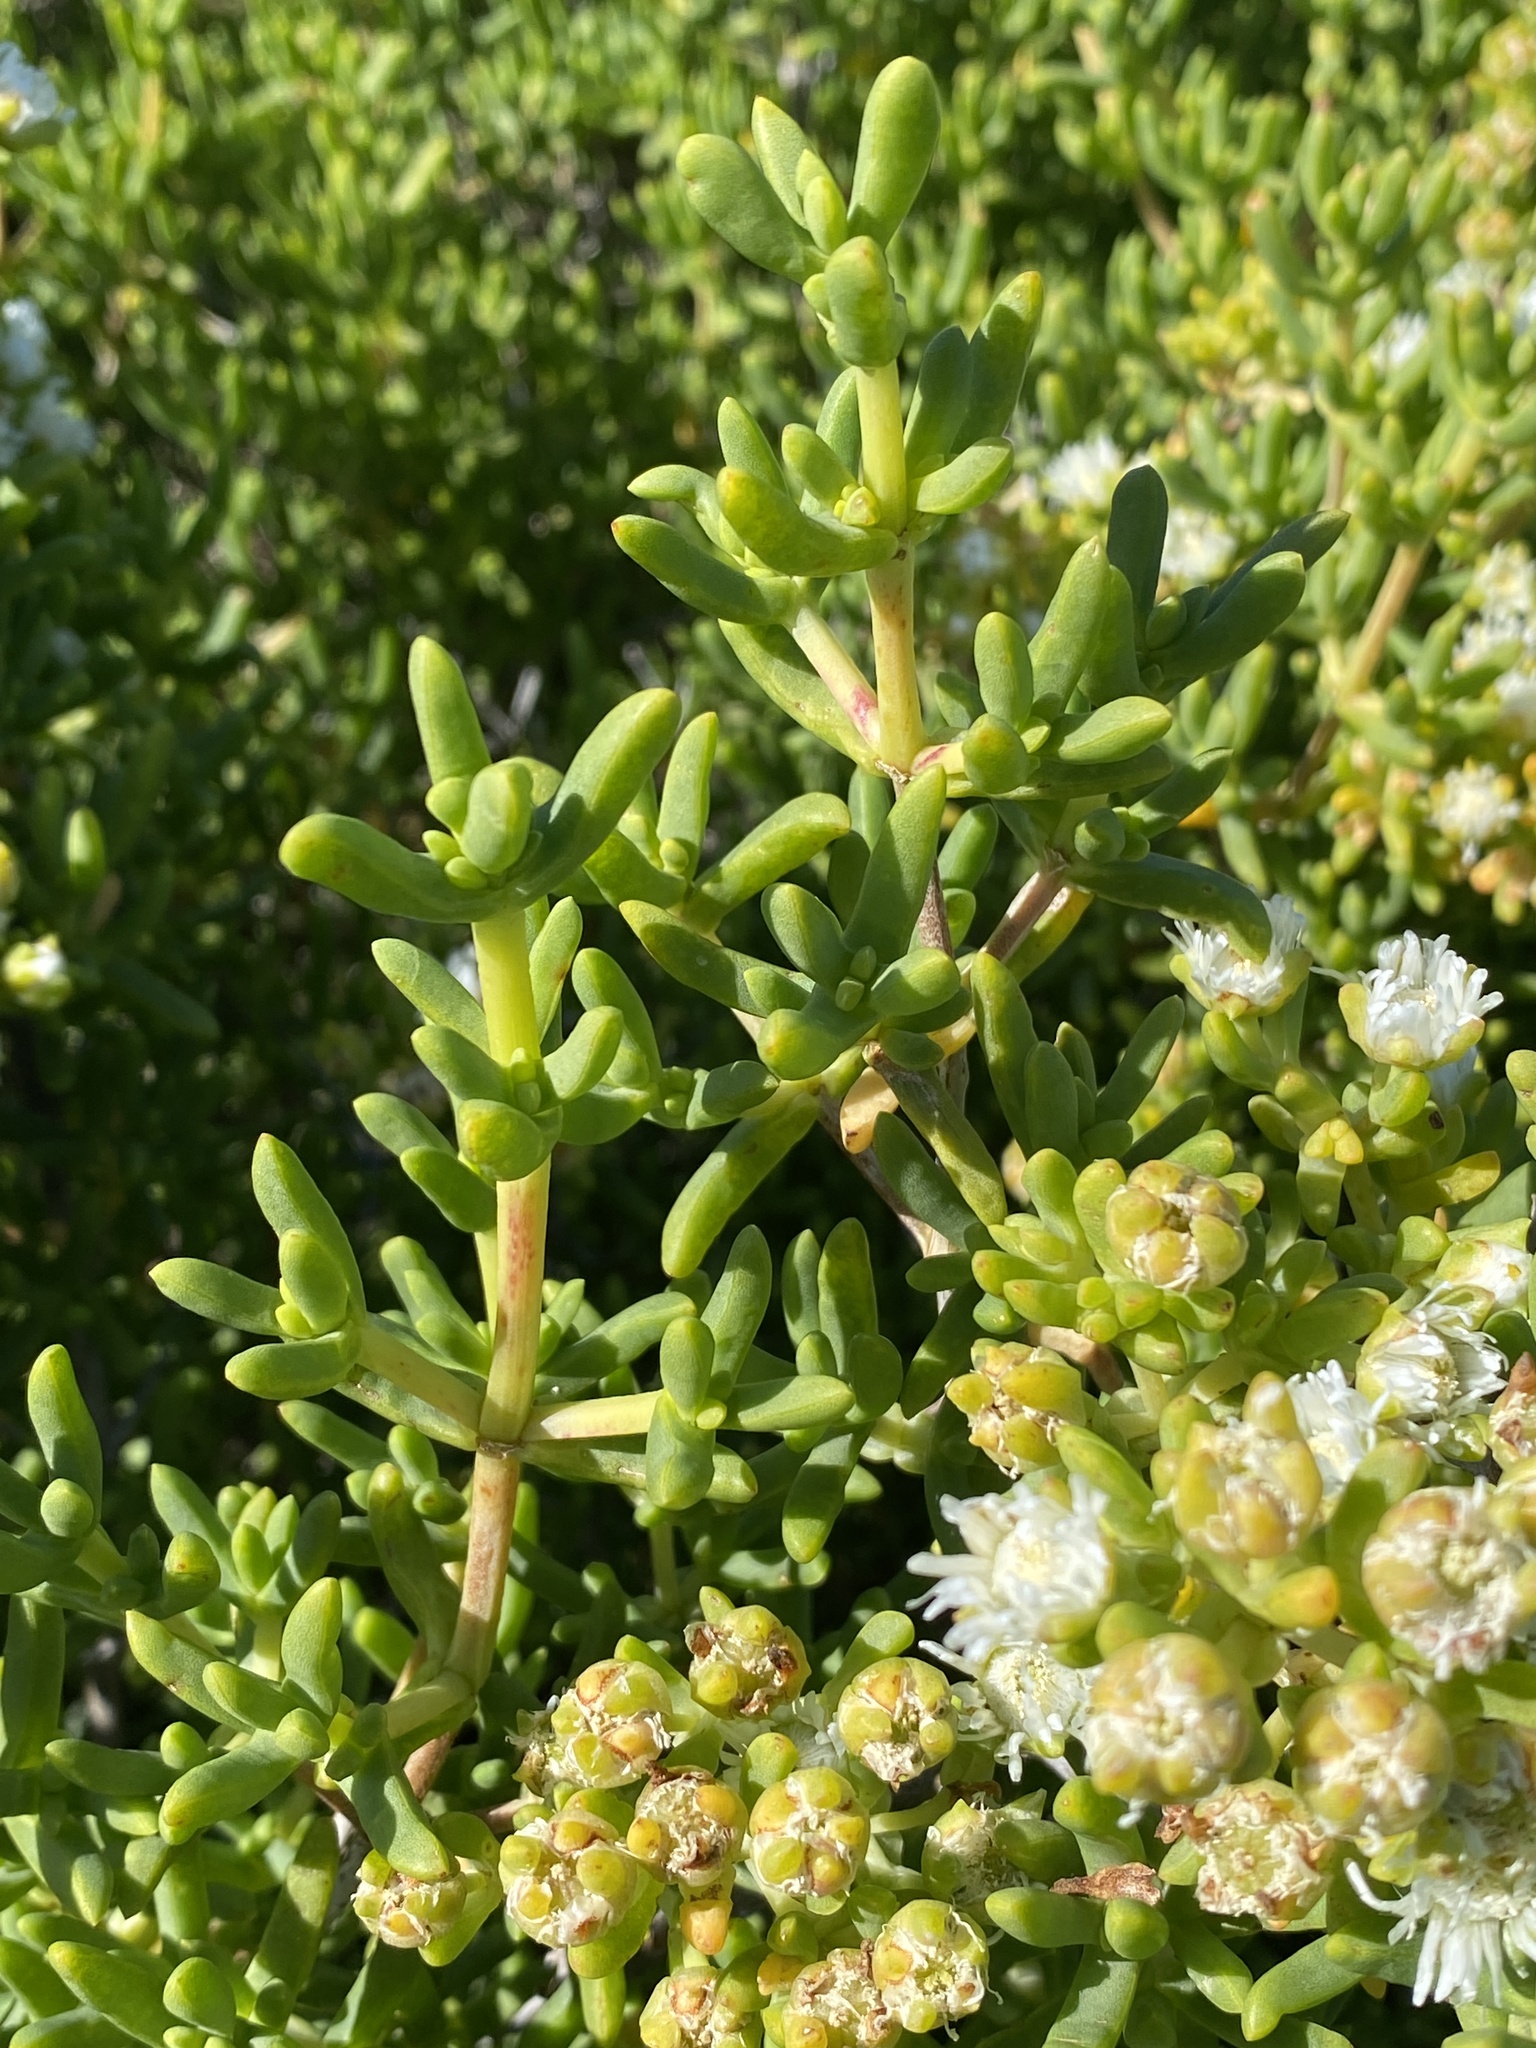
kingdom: Plantae
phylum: Tracheophyta
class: Magnoliopsida
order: Caryophyllales
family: Aizoaceae
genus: Stoeberia
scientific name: Stoeberia frutescens
